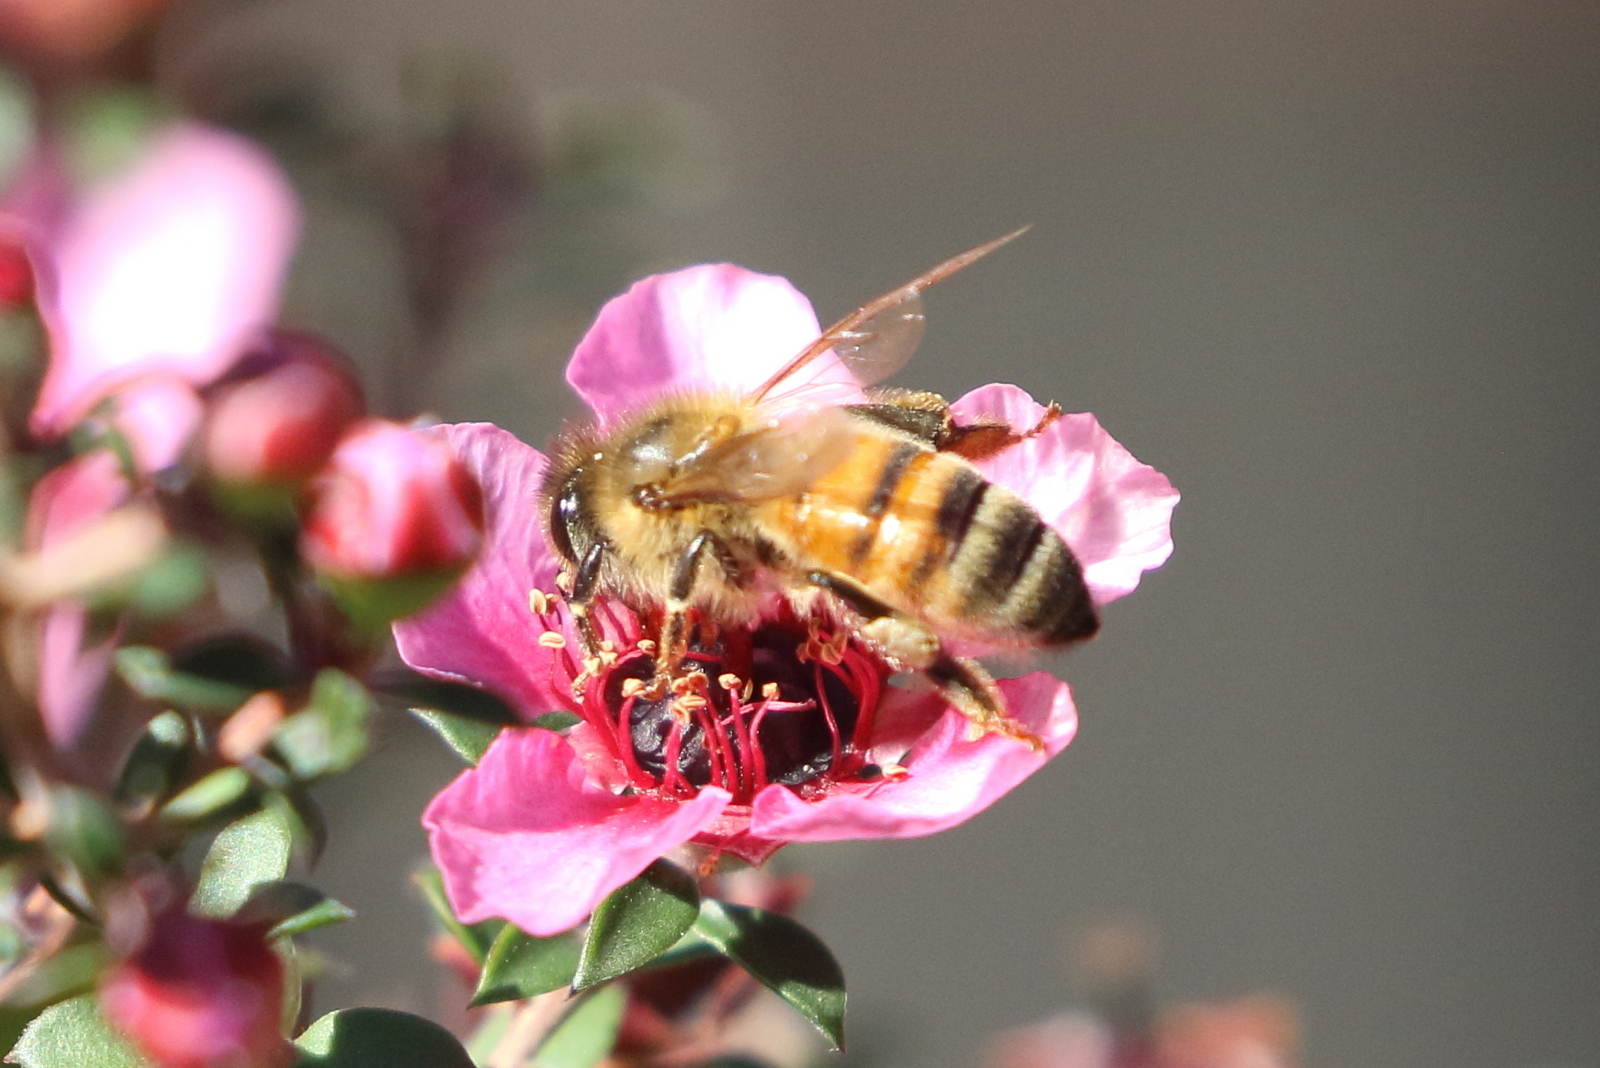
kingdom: Animalia
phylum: Arthropoda
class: Insecta
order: Hymenoptera
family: Apidae
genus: Apis
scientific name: Apis mellifera
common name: Honey bee
